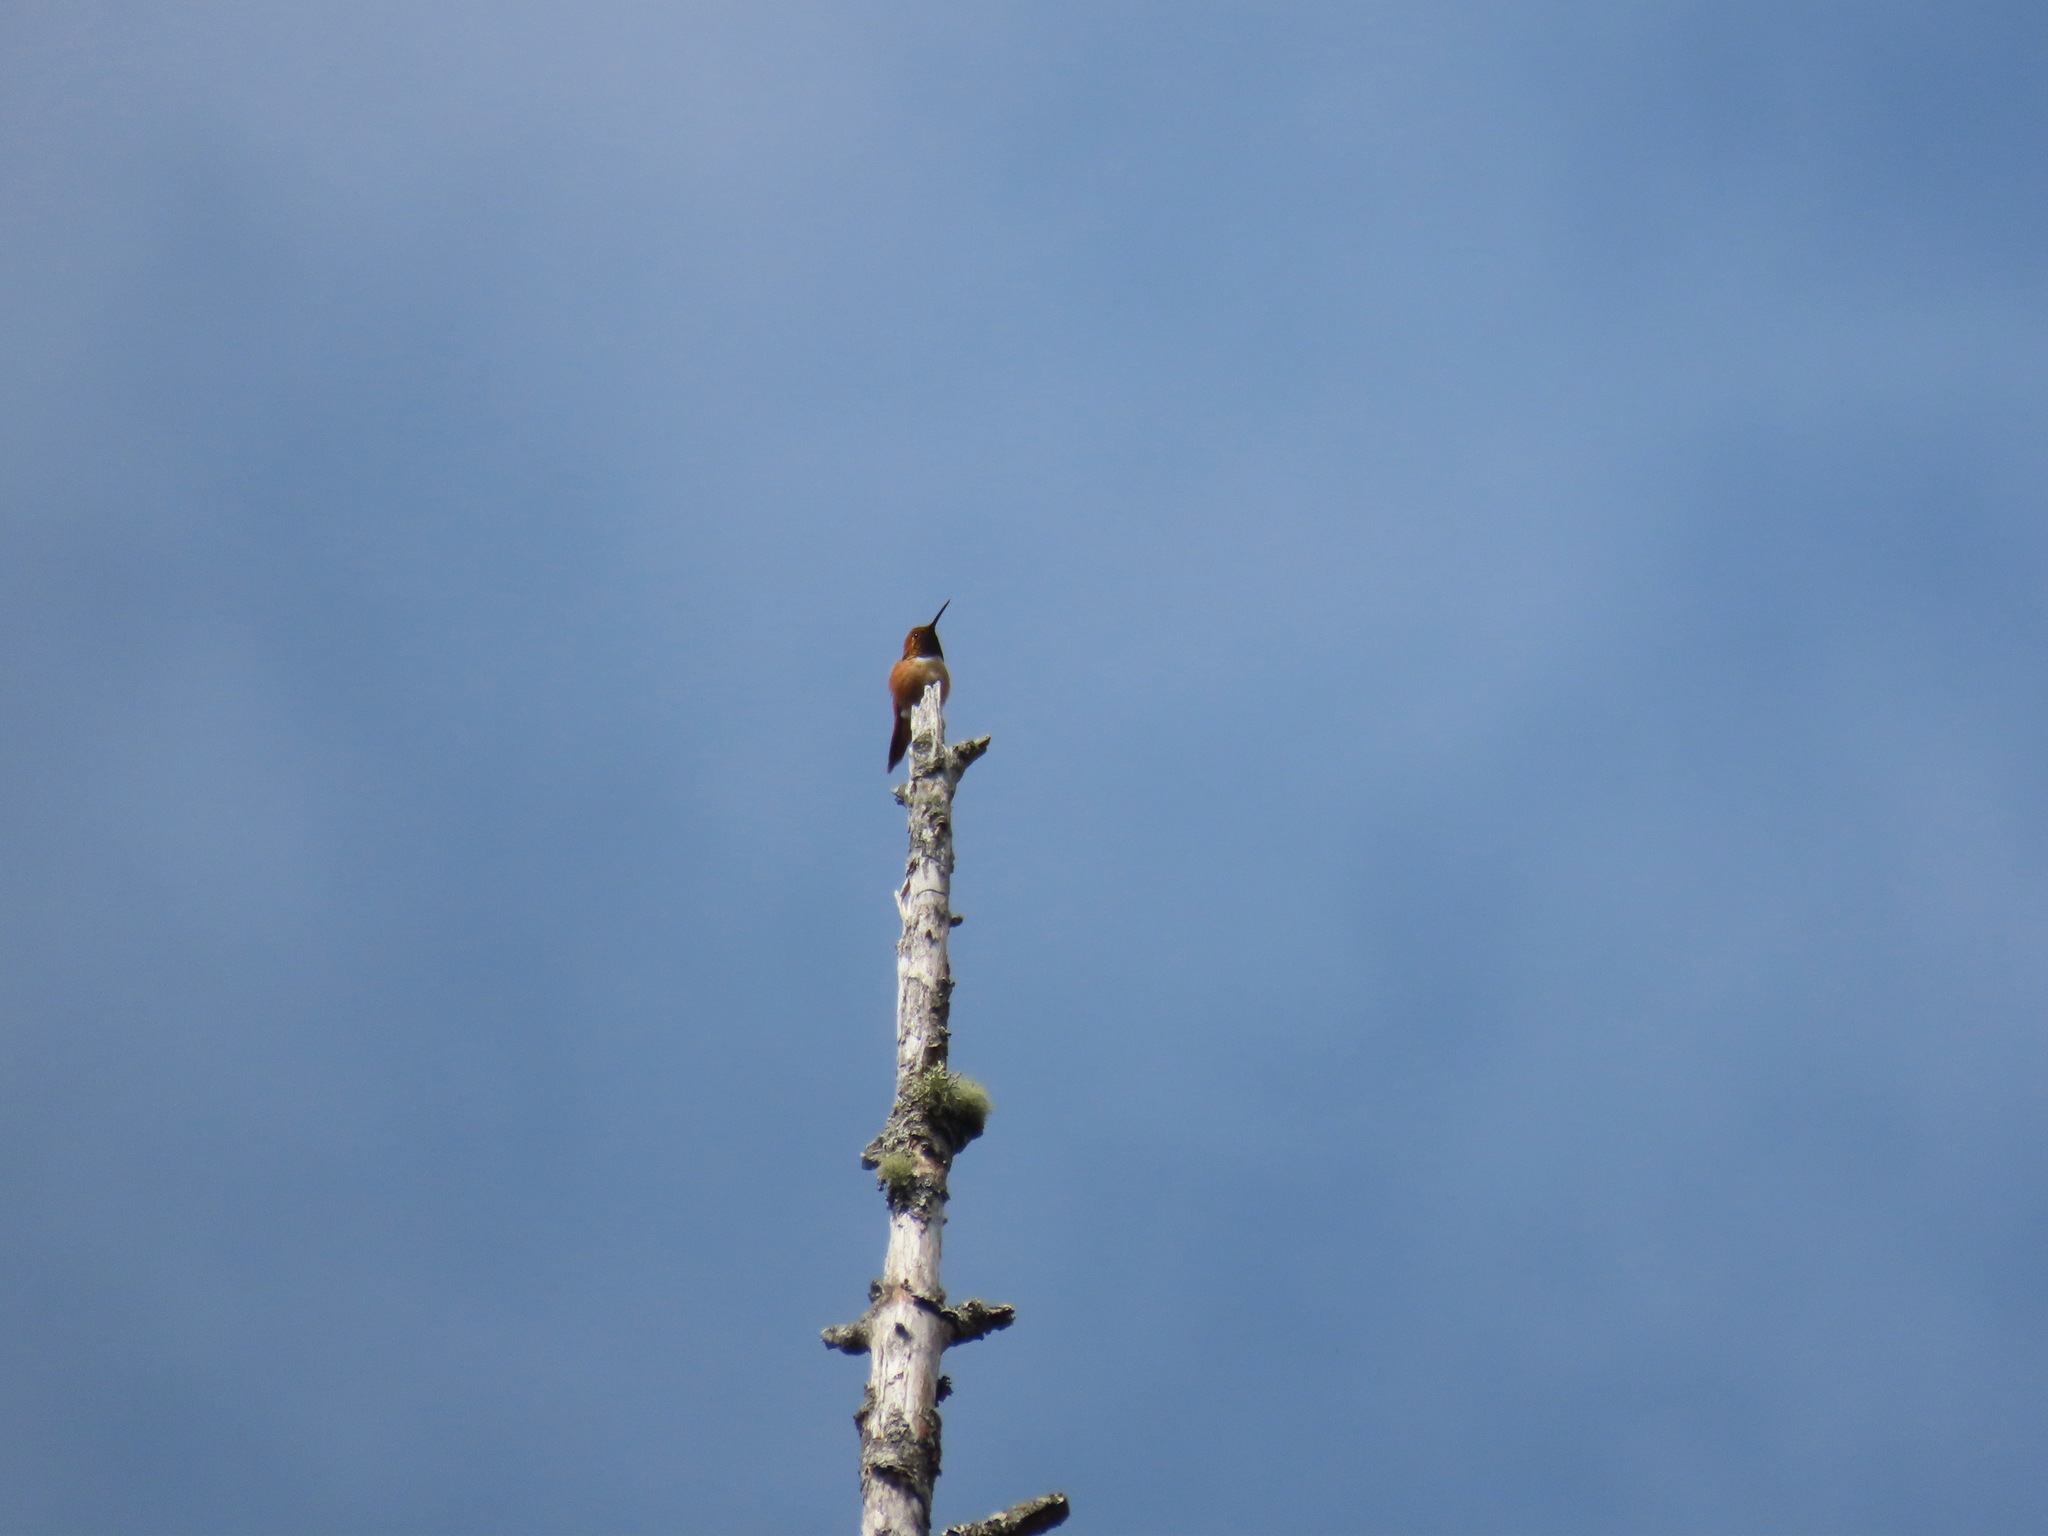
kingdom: Animalia
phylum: Chordata
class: Aves
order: Apodiformes
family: Trochilidae
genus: Selasphorus
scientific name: Selasphorus rufus
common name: Rufous hummingbird
